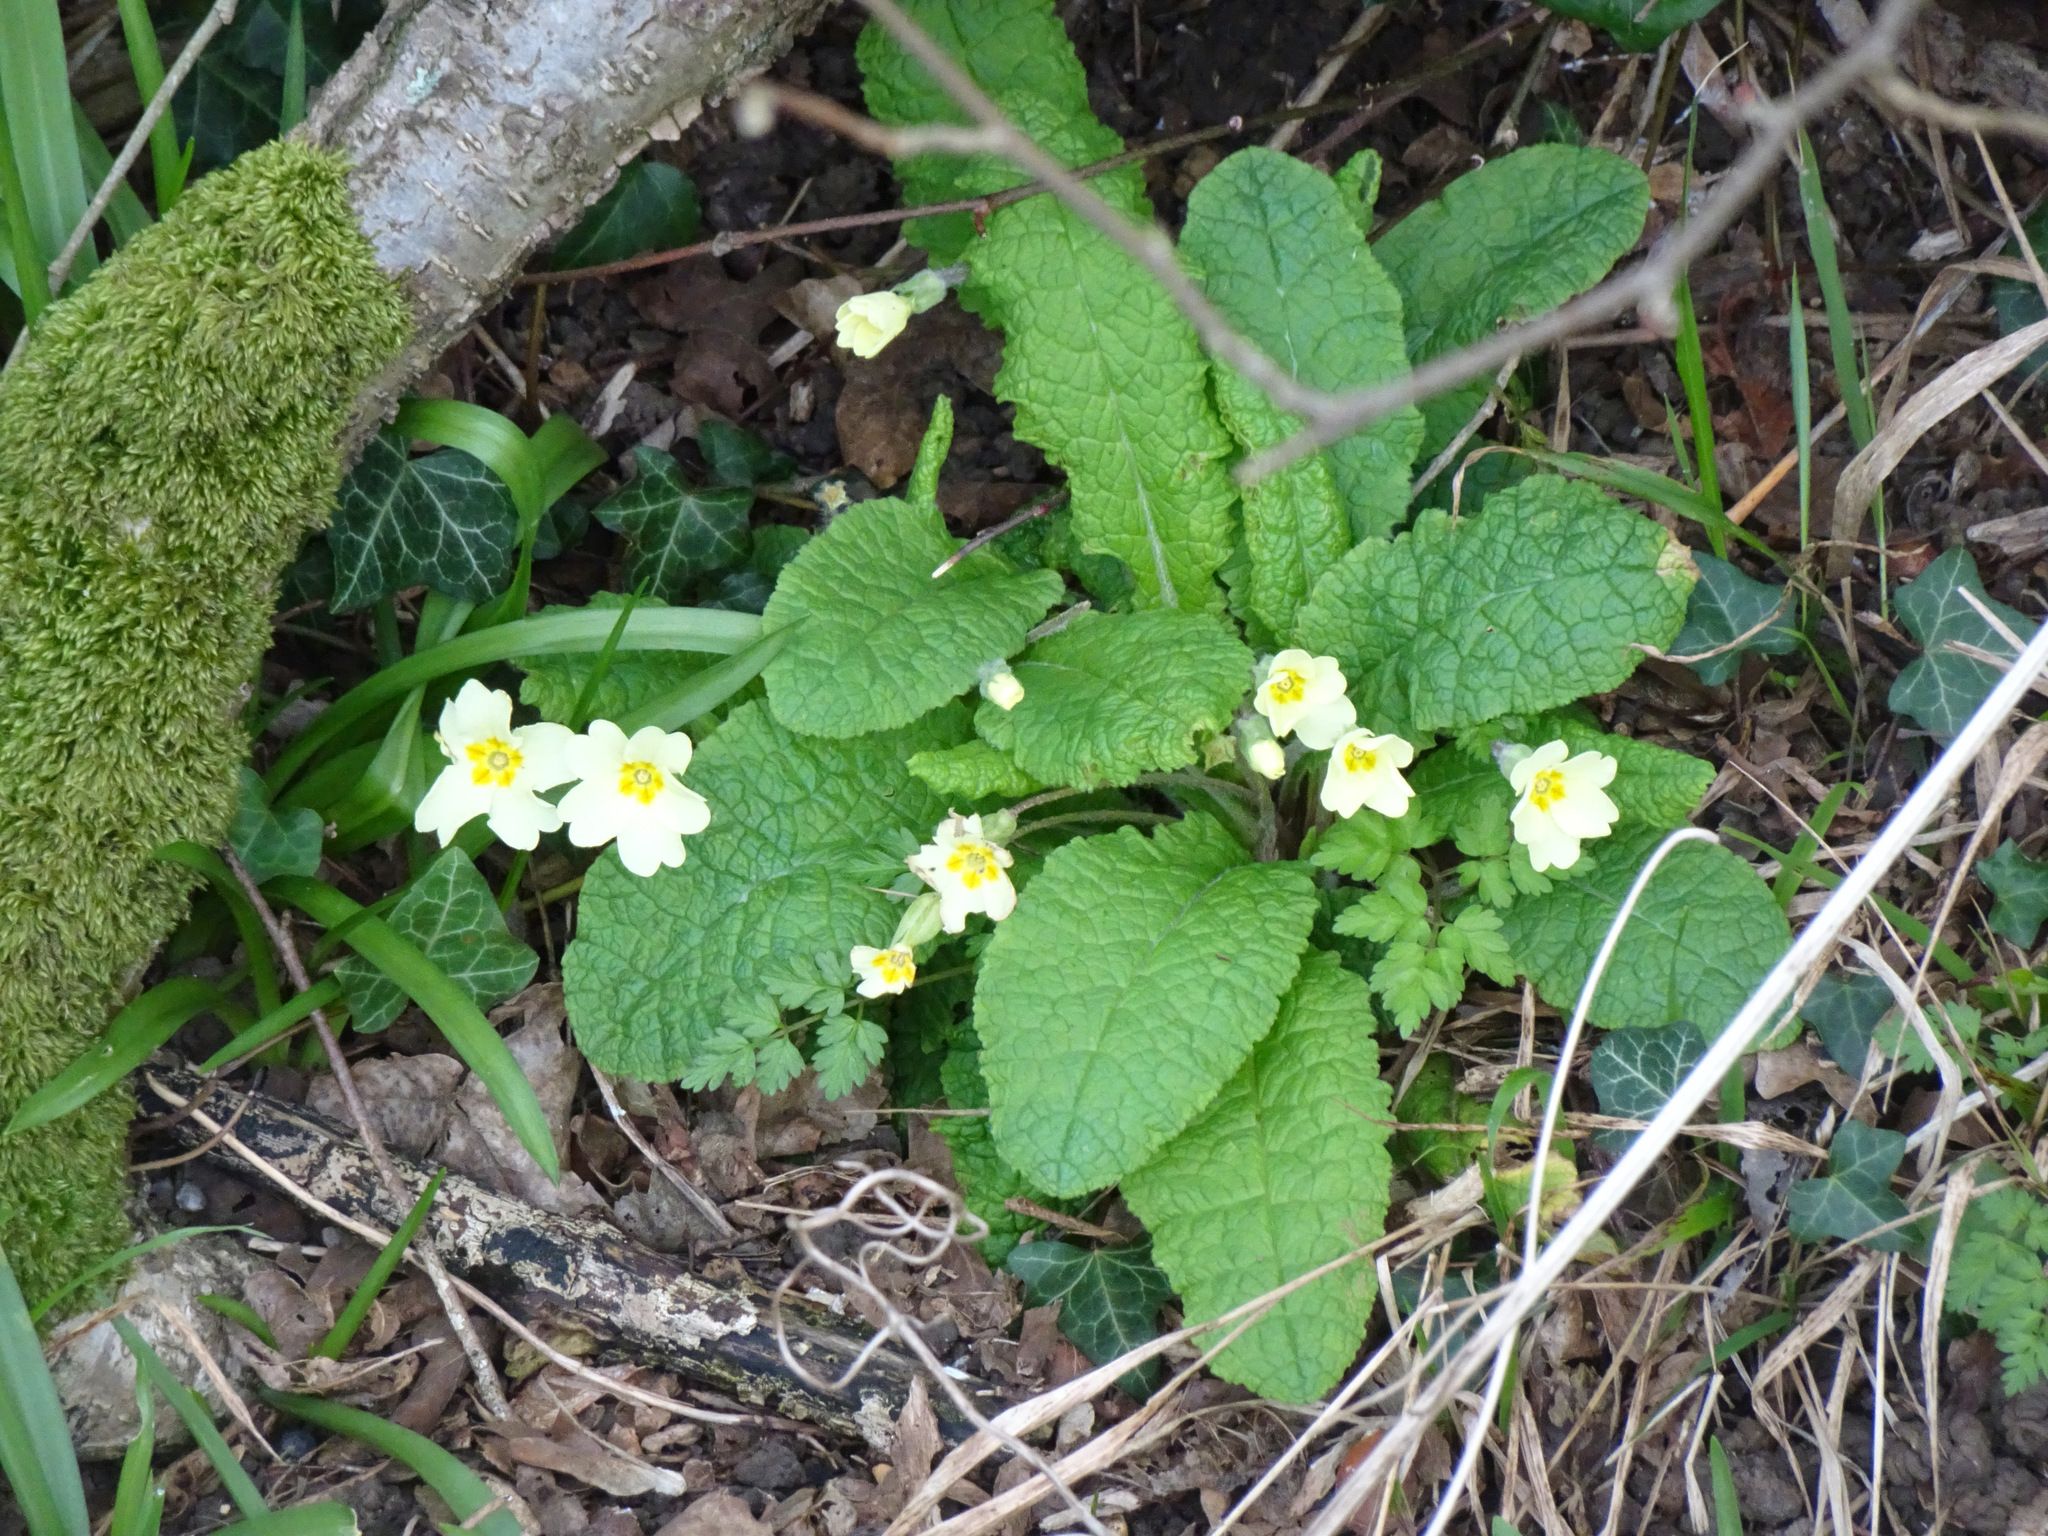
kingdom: Plantae
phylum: Tracheophyta
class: Magnoliopsida
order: Ericales
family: Primulaceae
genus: Primula
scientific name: Primula vulgaris
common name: Primrose
